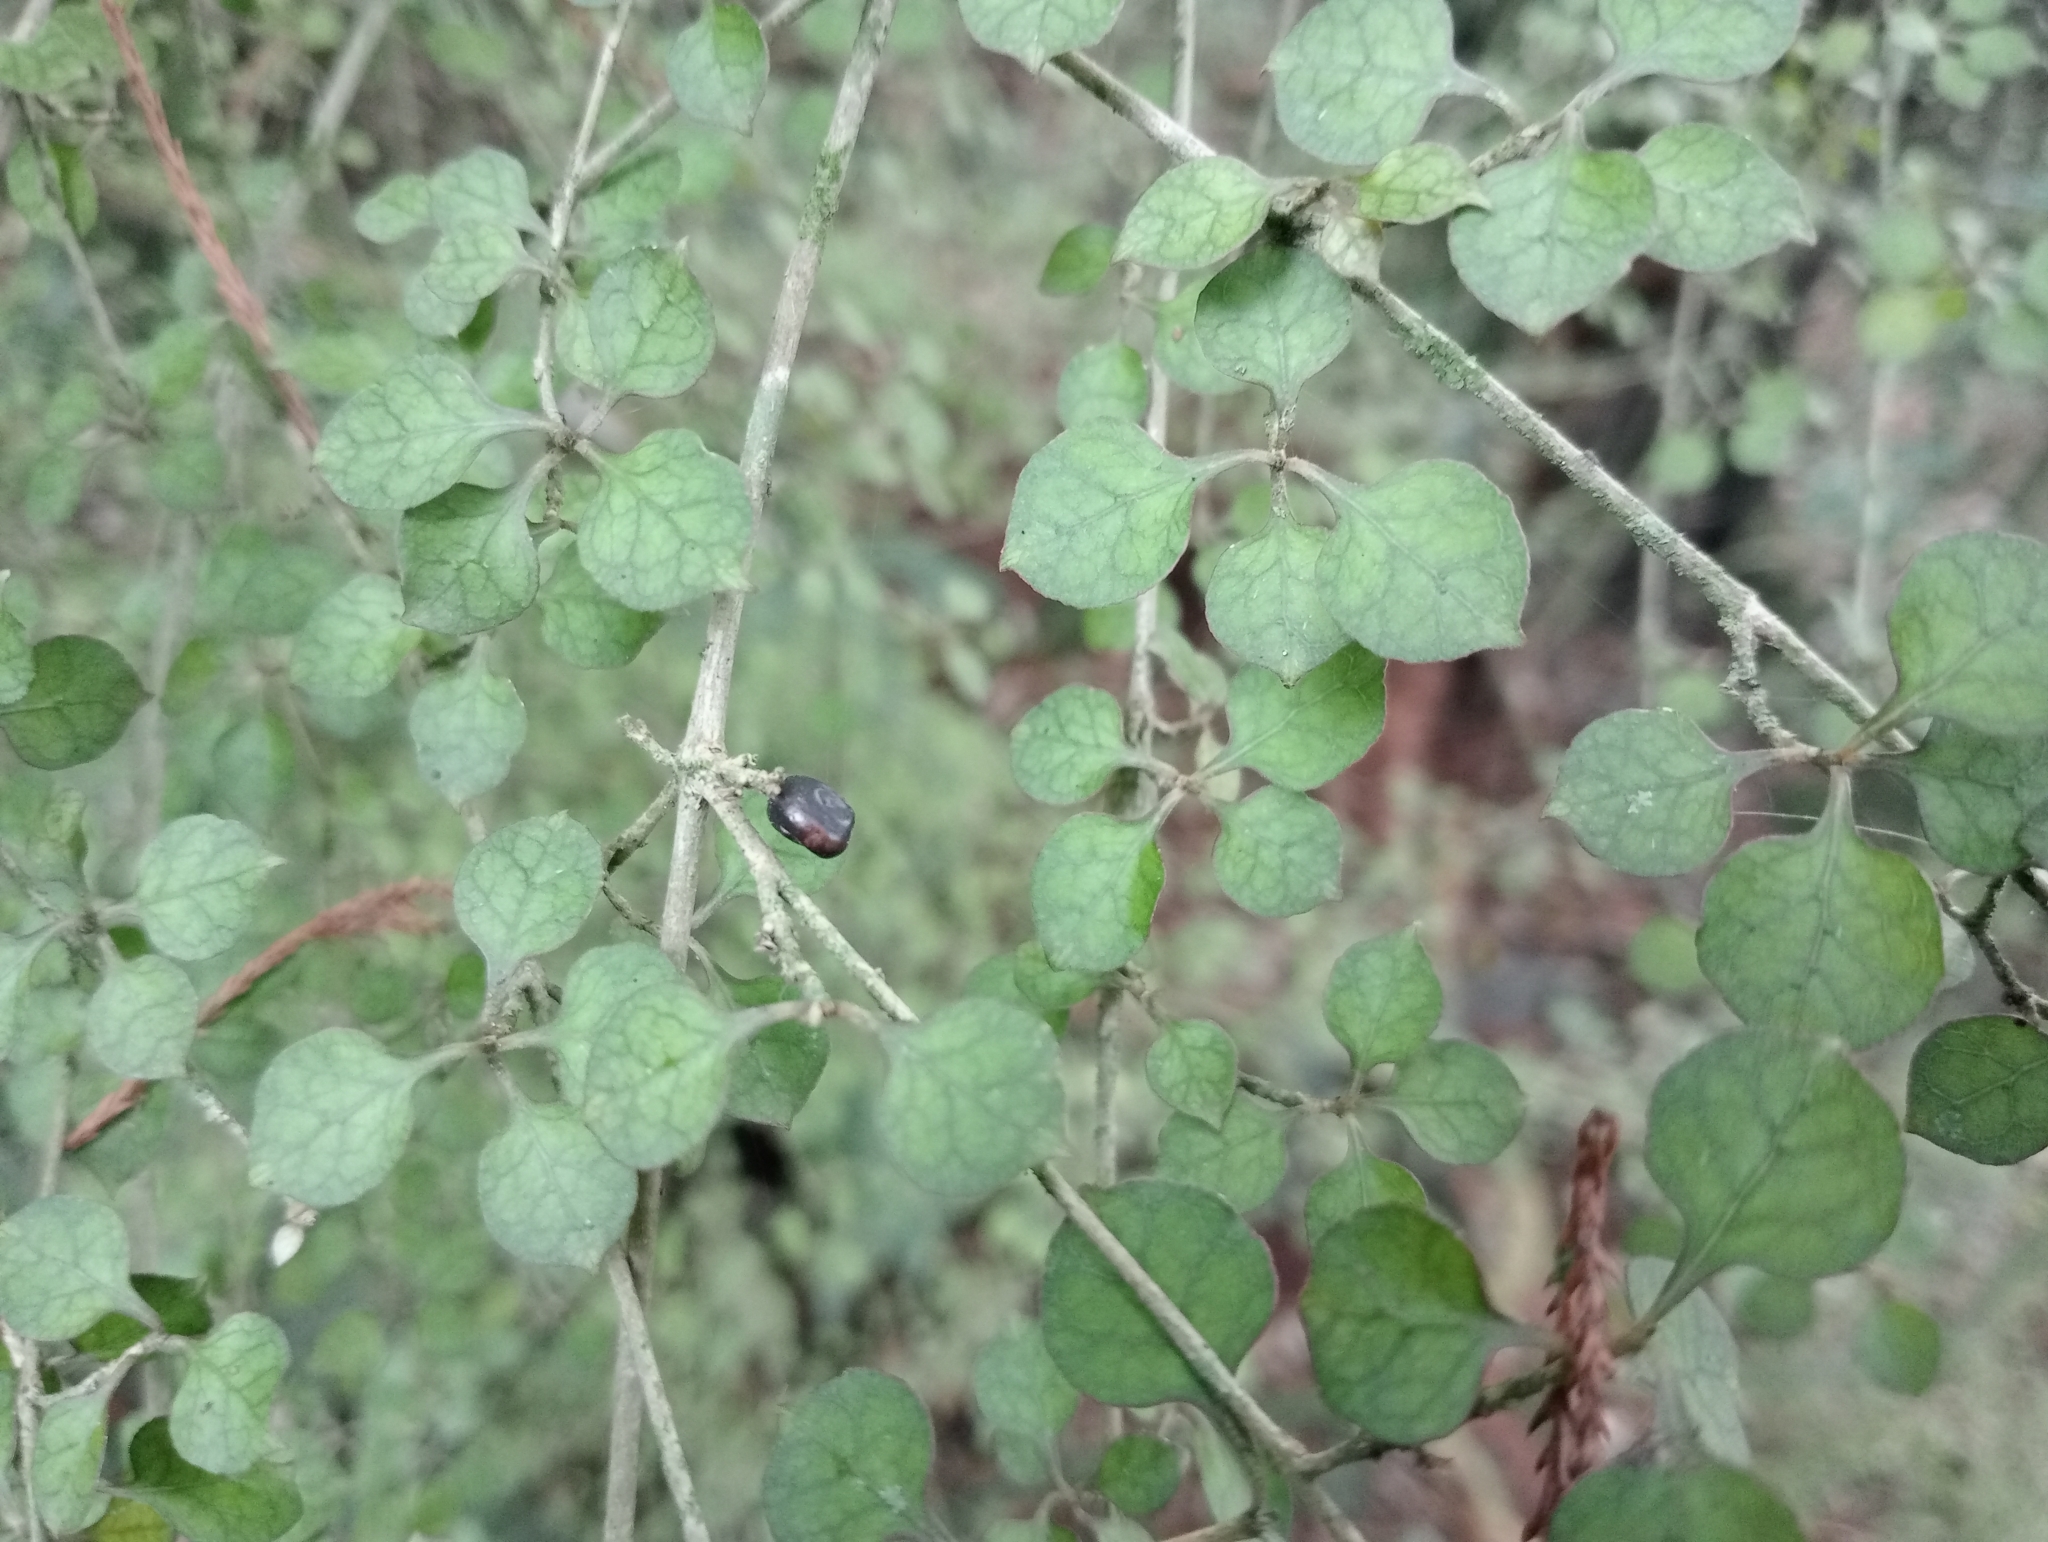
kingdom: Plantae
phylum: Tracheophyta
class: Magnoliopsida
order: Gentianales
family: Rubiaceae
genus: Coprosma
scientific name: Coprosma areolata
